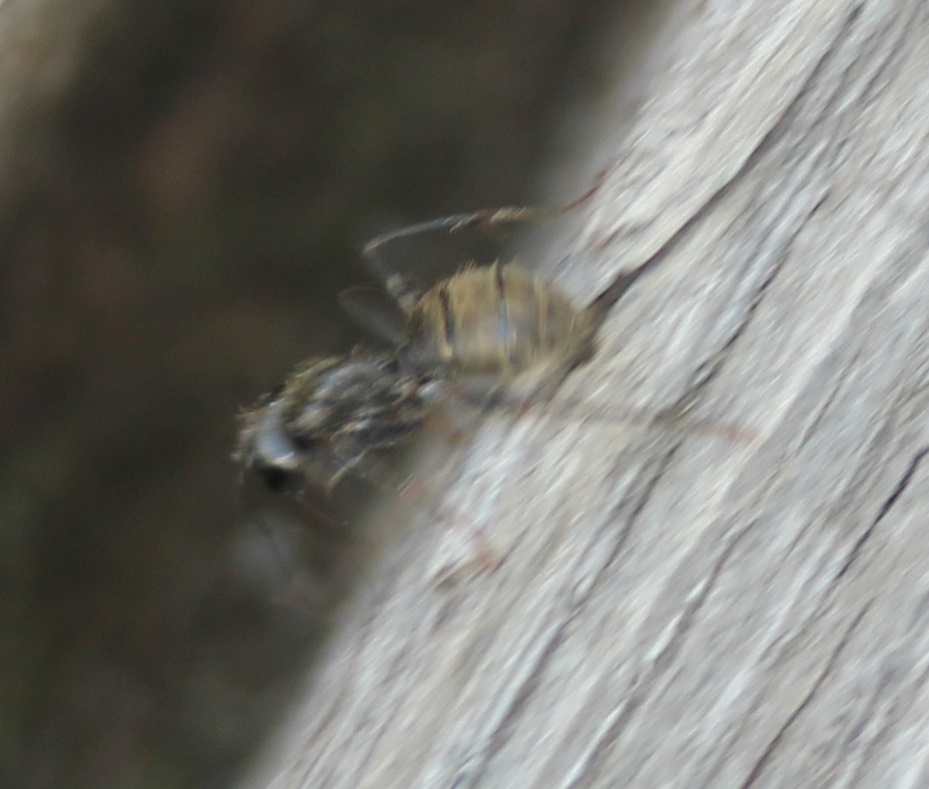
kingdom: Animalia
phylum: Arthropoda
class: Insecta
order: Hymenoptera
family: Formicidae
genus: Camponotus
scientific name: Camponotus pennsylvanicus
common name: Black carpenter ant
